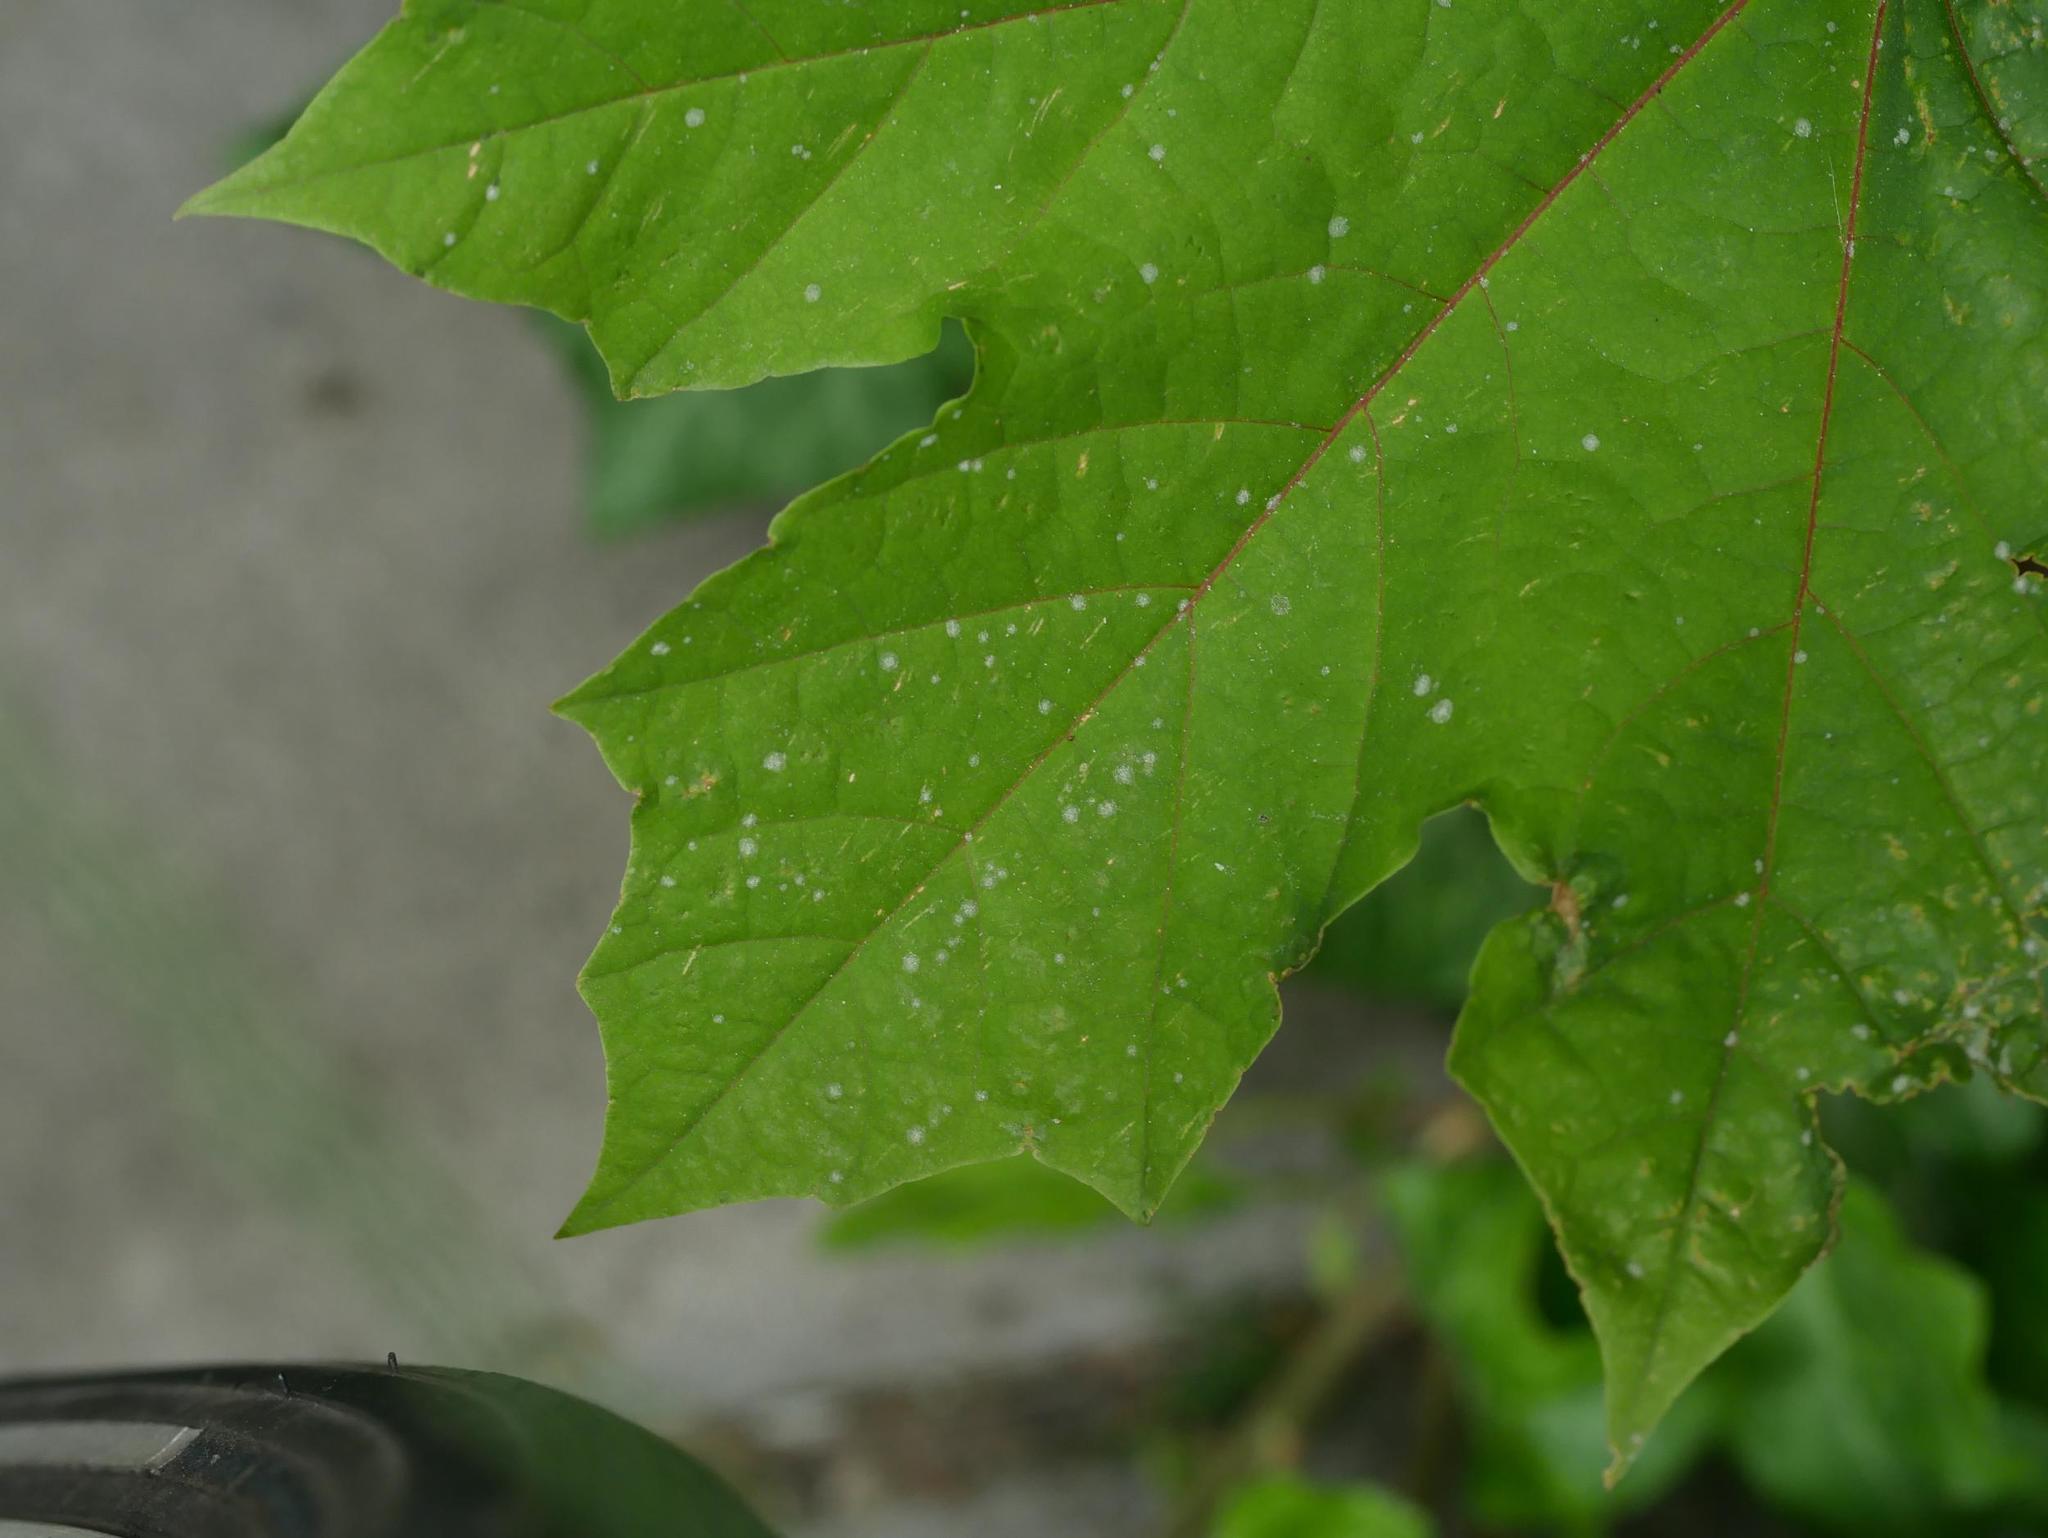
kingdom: Fungi
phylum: Ascomycota
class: Leotiomycetes
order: Helotiales
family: Erysiphaceae
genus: Sawadaea
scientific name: Sawadaea tulasnei
